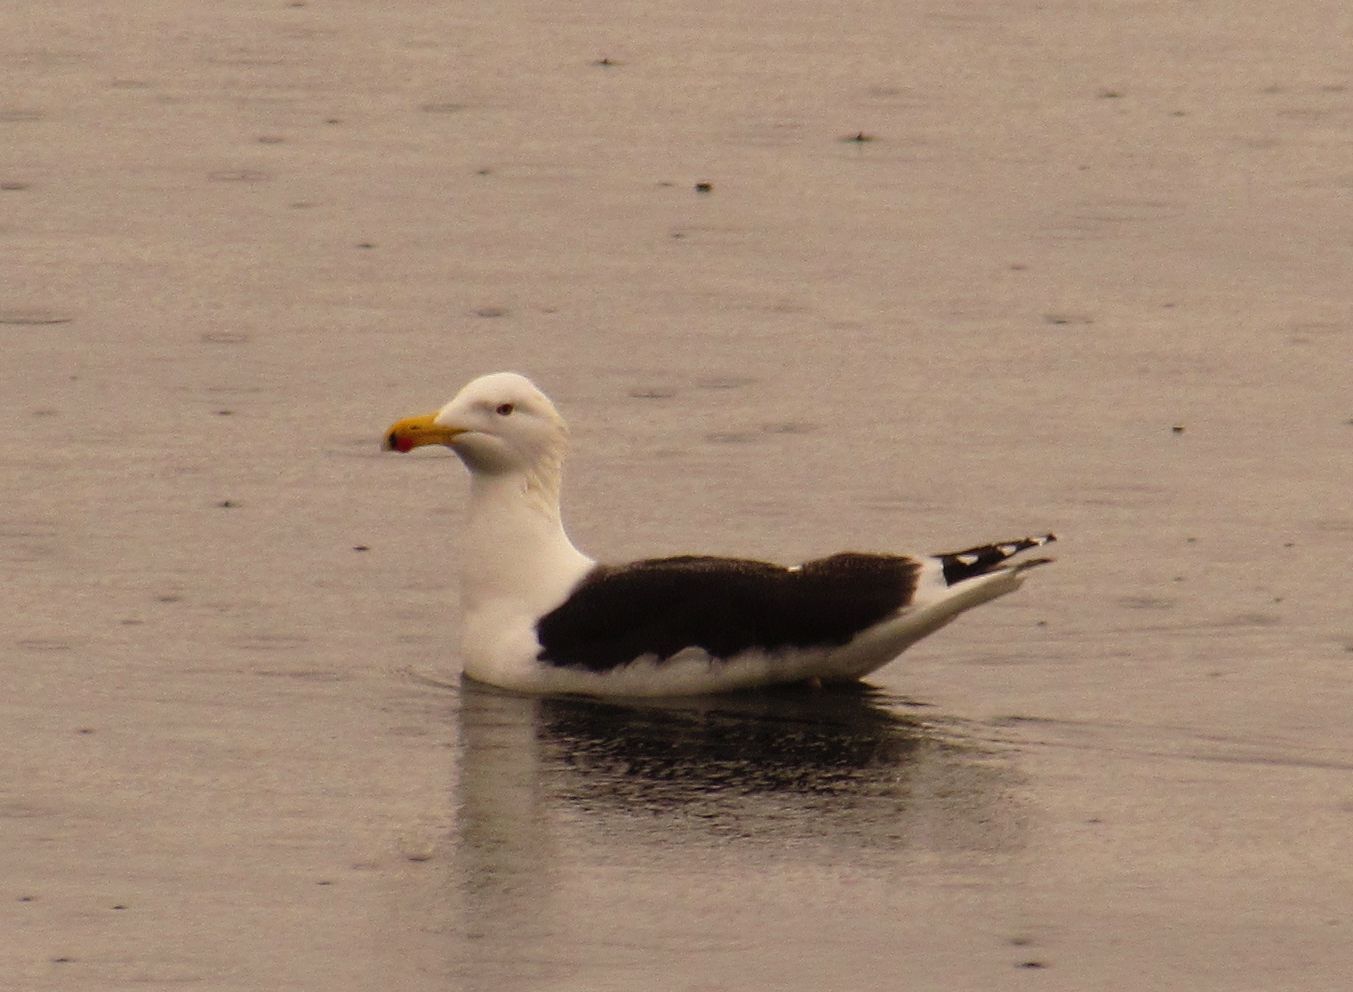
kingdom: Animalia
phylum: Chordata
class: Aves
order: Charadriiformes
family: Laridae
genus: Larus
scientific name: Larus marinus
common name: Great black-backed gull
